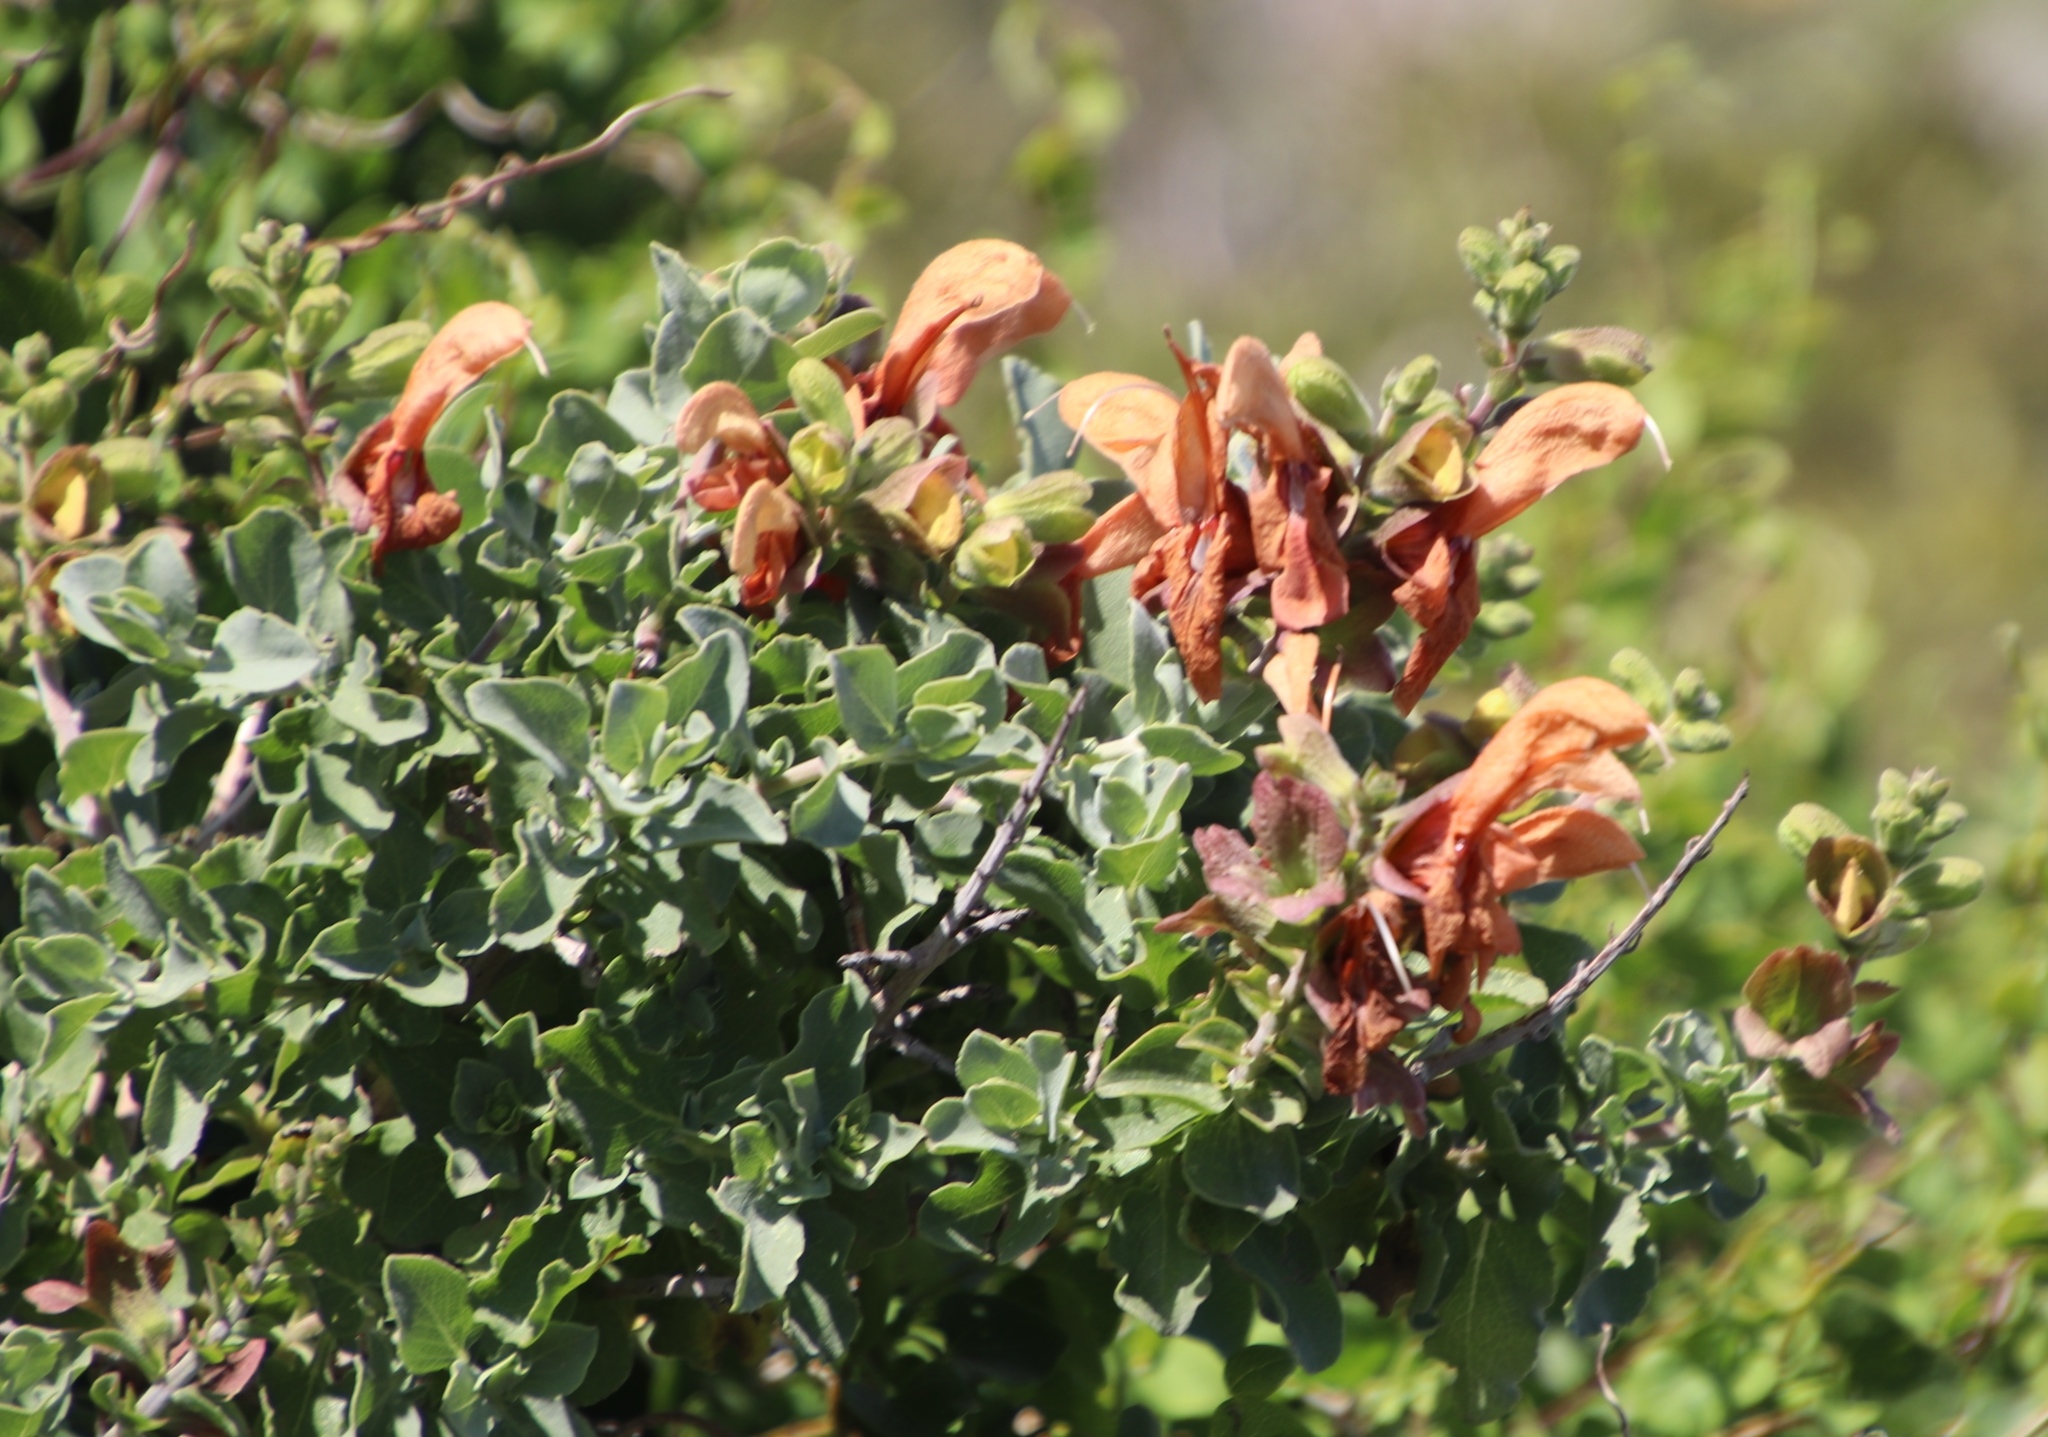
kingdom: Plantae
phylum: Tracheophyta
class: Magnoliopsida
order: Lamiales
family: Lamiaceae
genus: Salvia
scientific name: Salvia aurea
